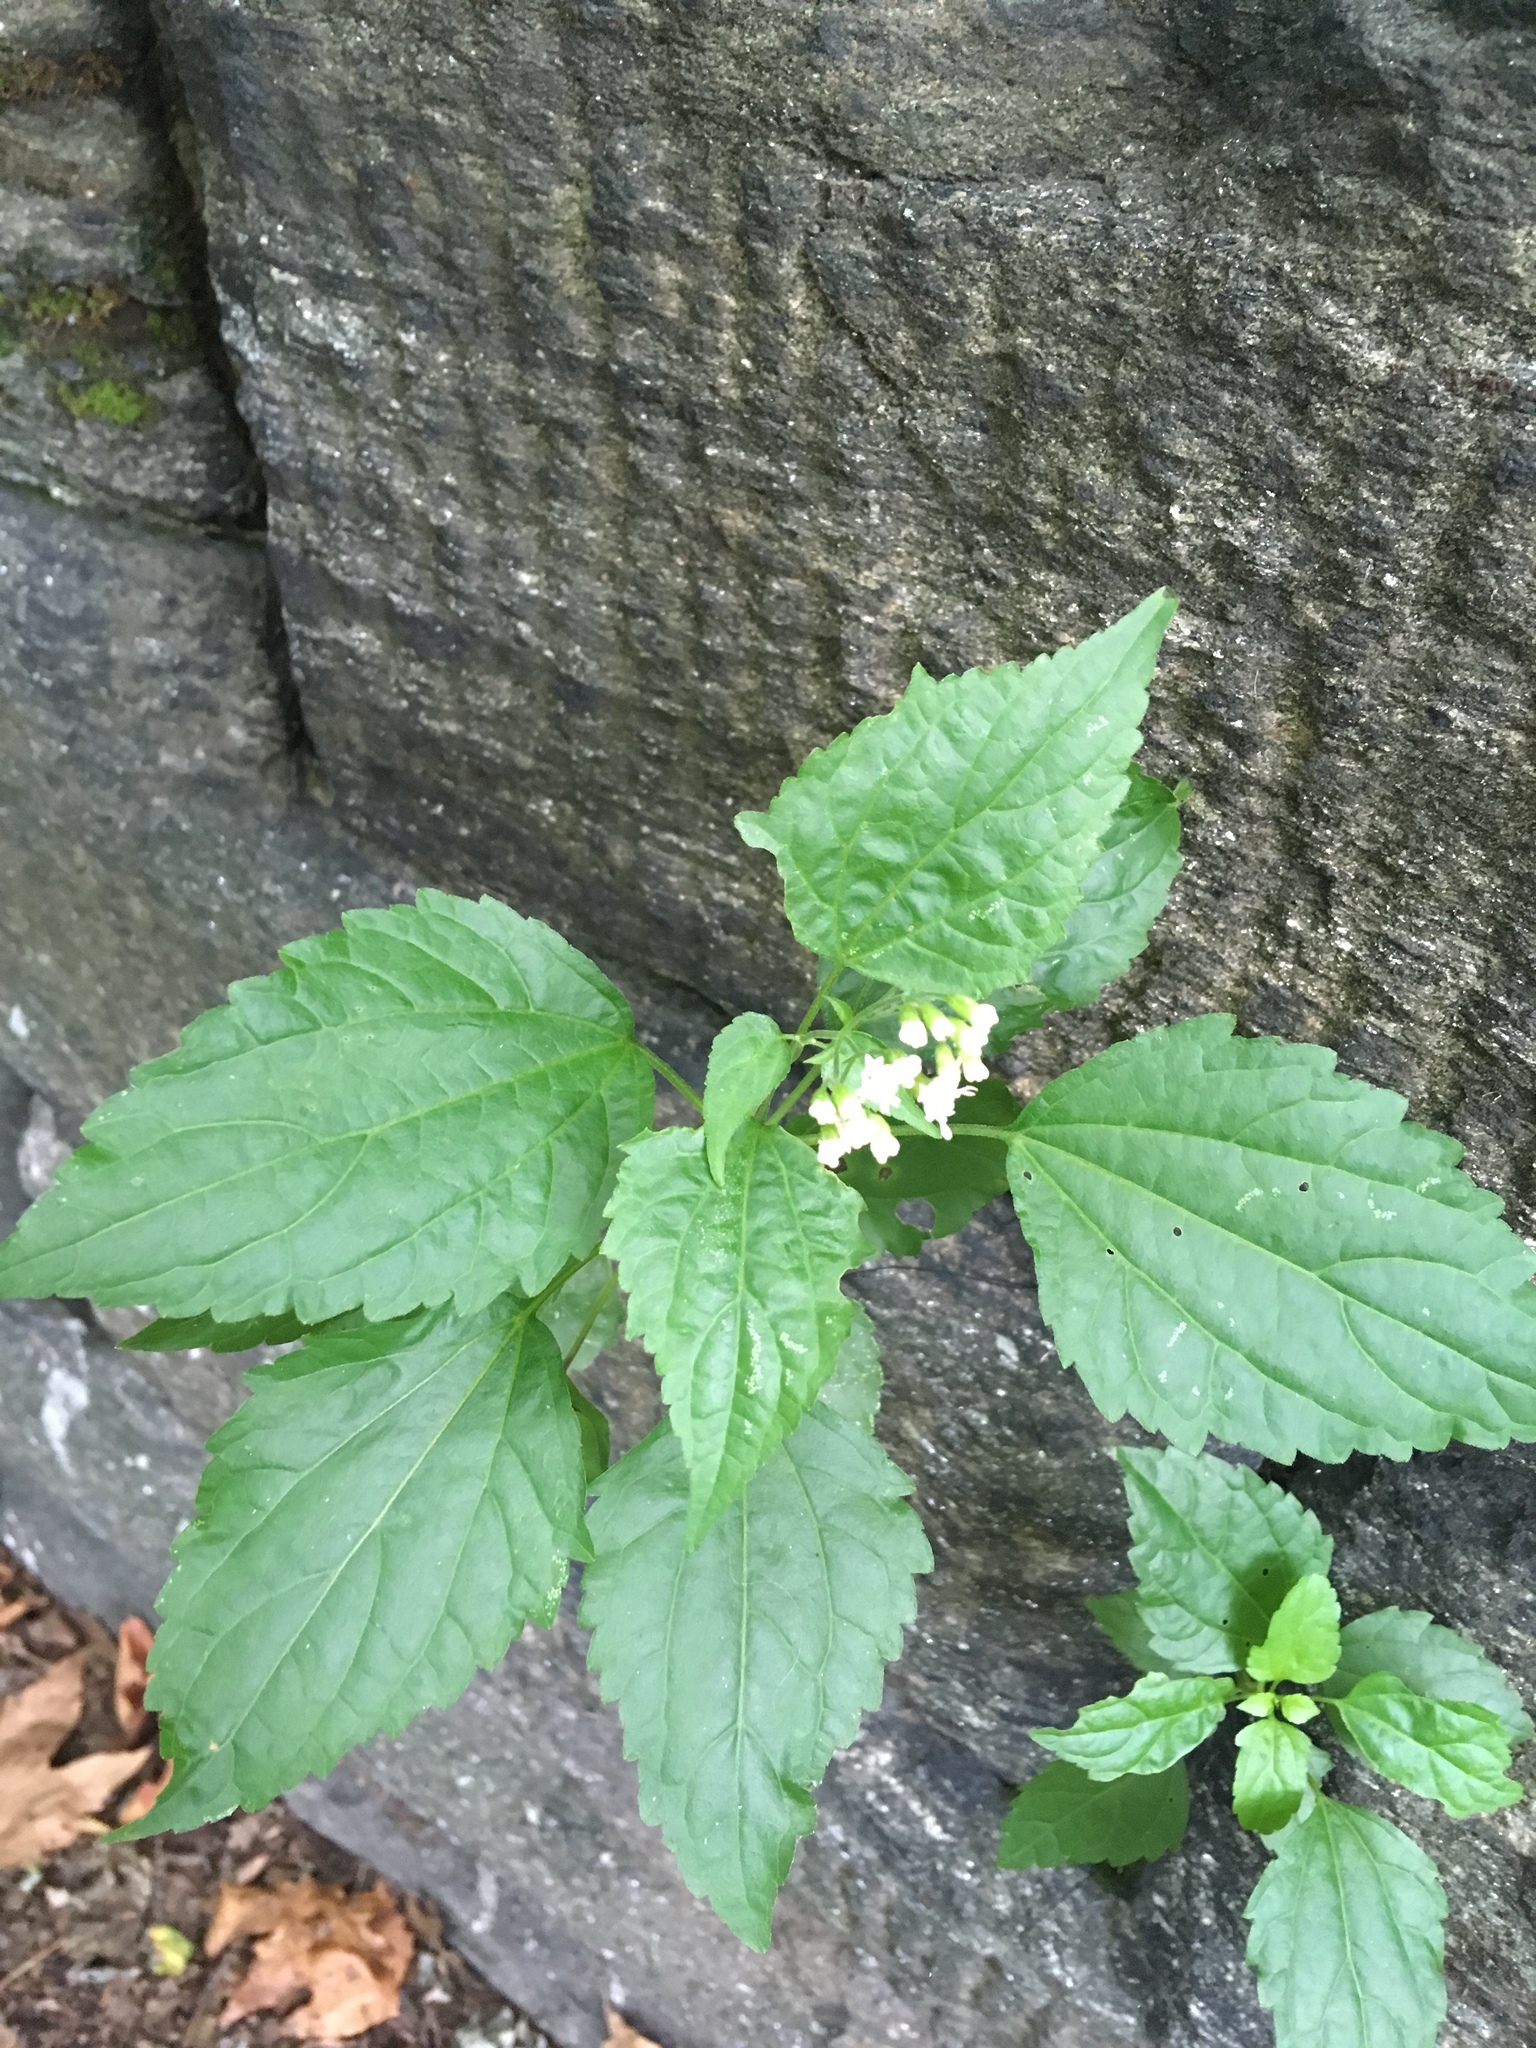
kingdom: Plantae
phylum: Tracheophyta
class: Magnoliopsida
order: Asterales
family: Asteraceae
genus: Ageratina
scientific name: Ageratina altissima
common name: White snakeroot
